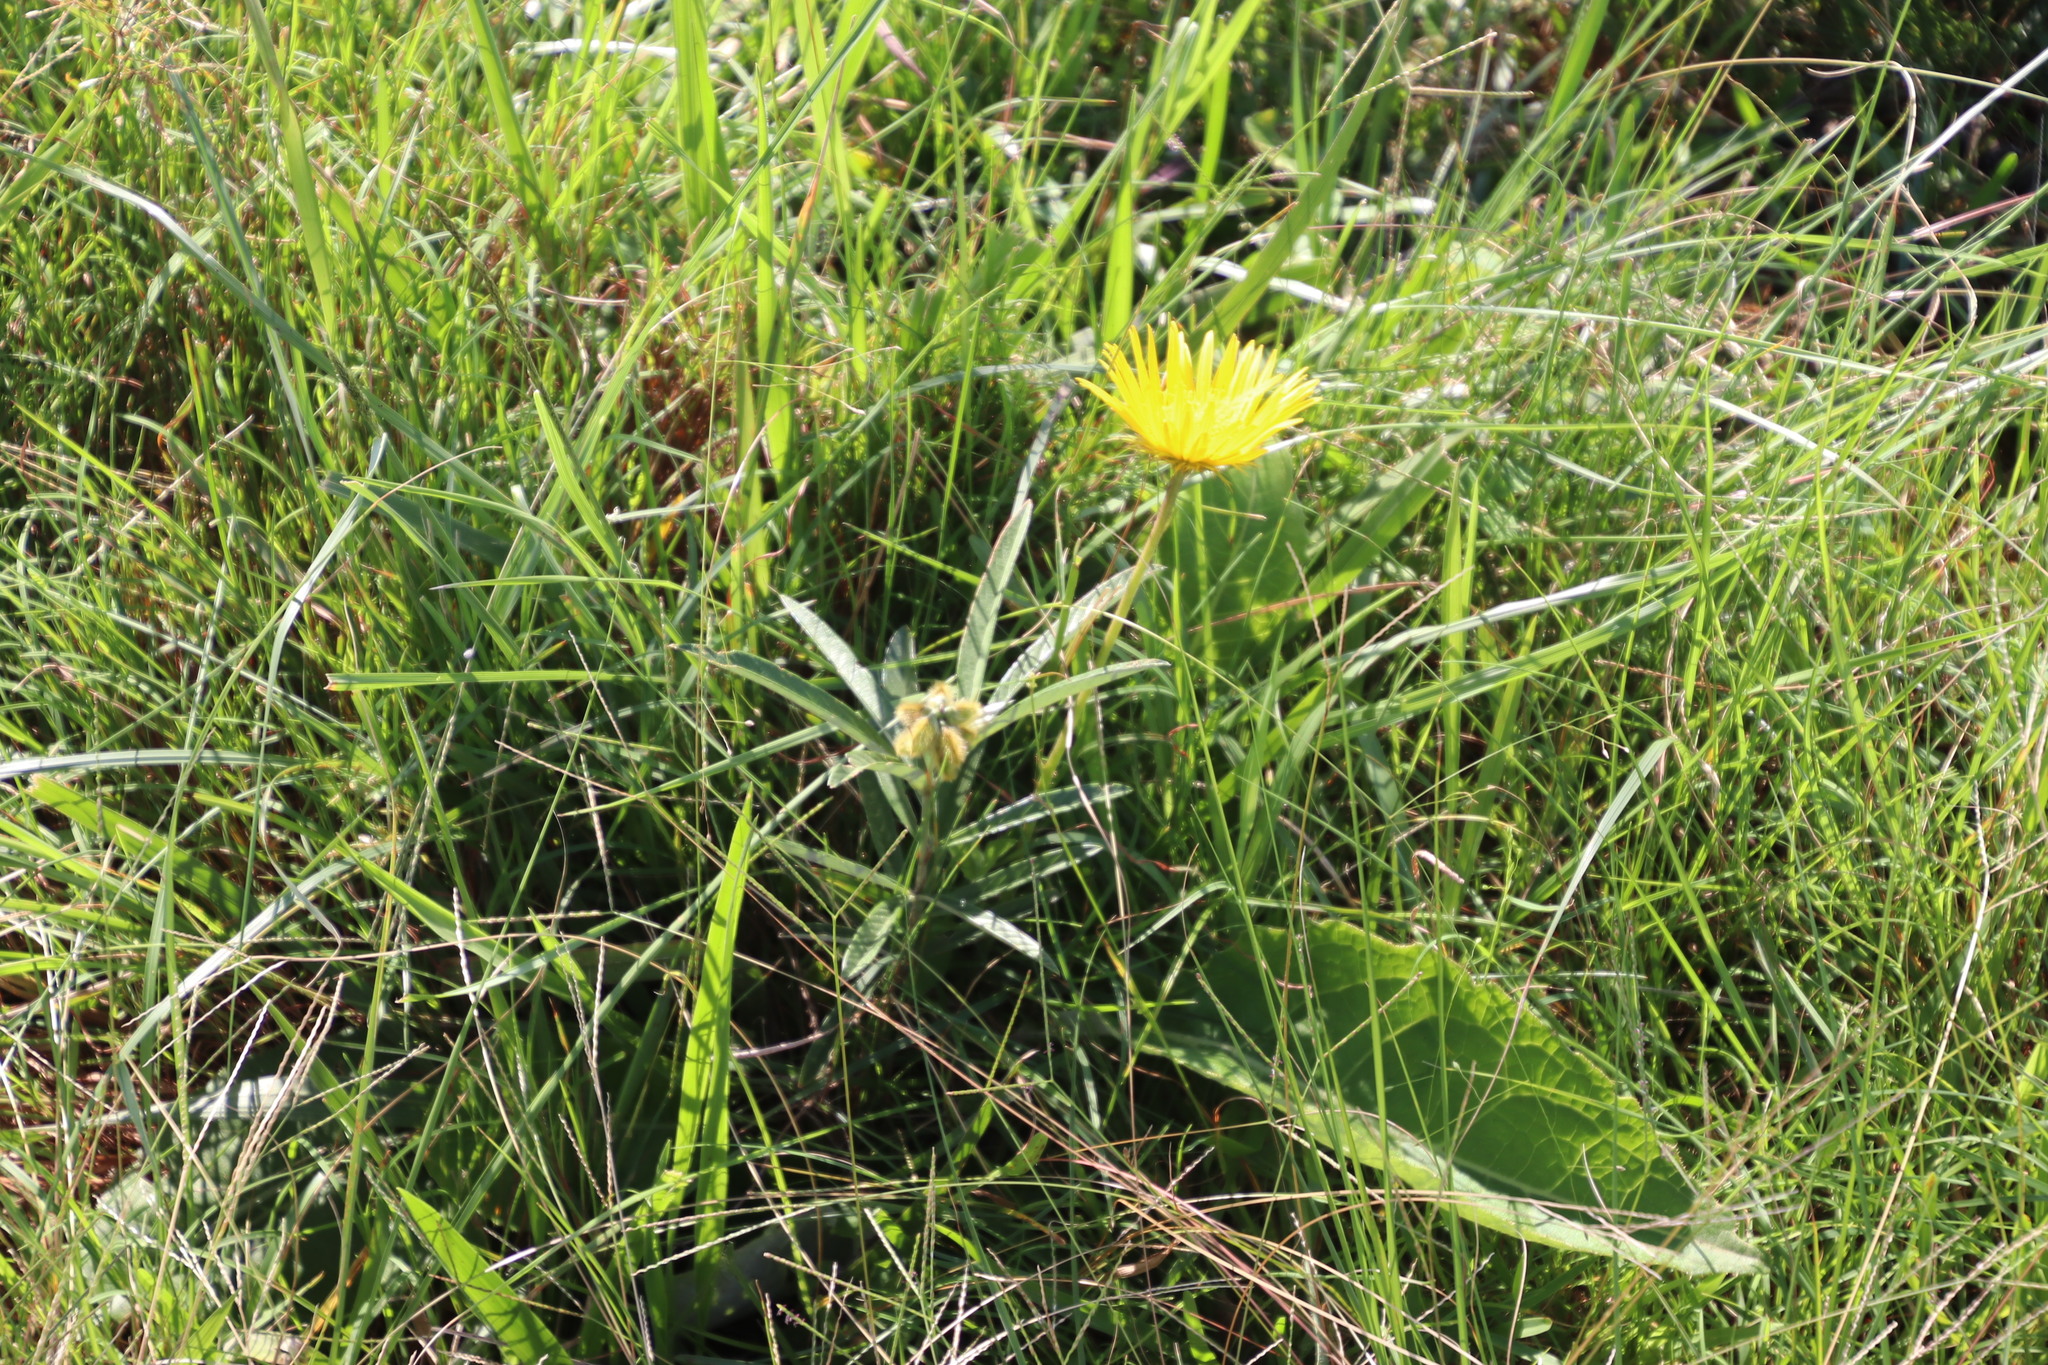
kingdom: Plantae
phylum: Tracheophyta
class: Magnoliopsida
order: Asterales
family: Asteraceae
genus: Berkheya
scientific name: Berkheya speciosa
